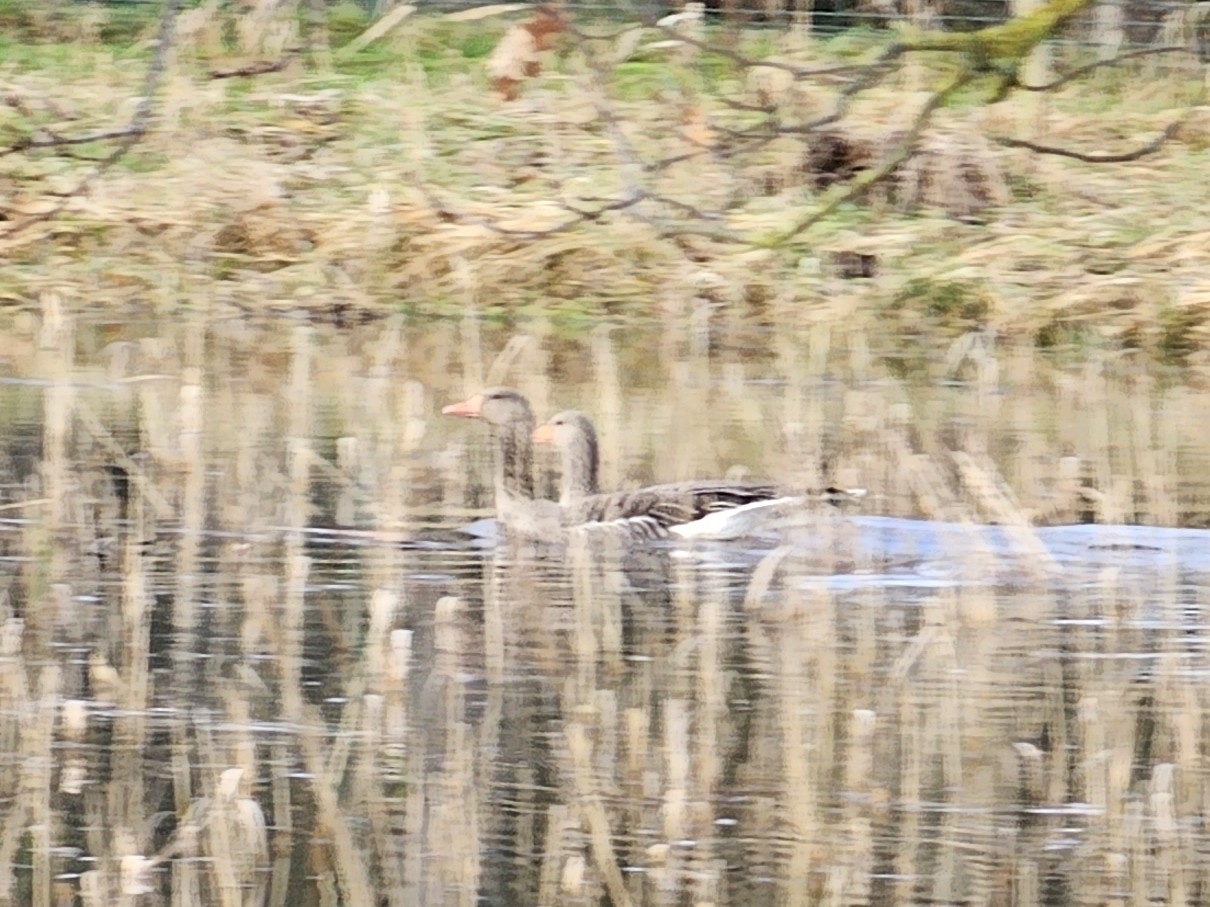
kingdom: Animalia
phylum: Chordata
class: Aves
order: Anseriformes
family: Anatidae
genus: Anser
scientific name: Anser anser
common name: Greylag goose
